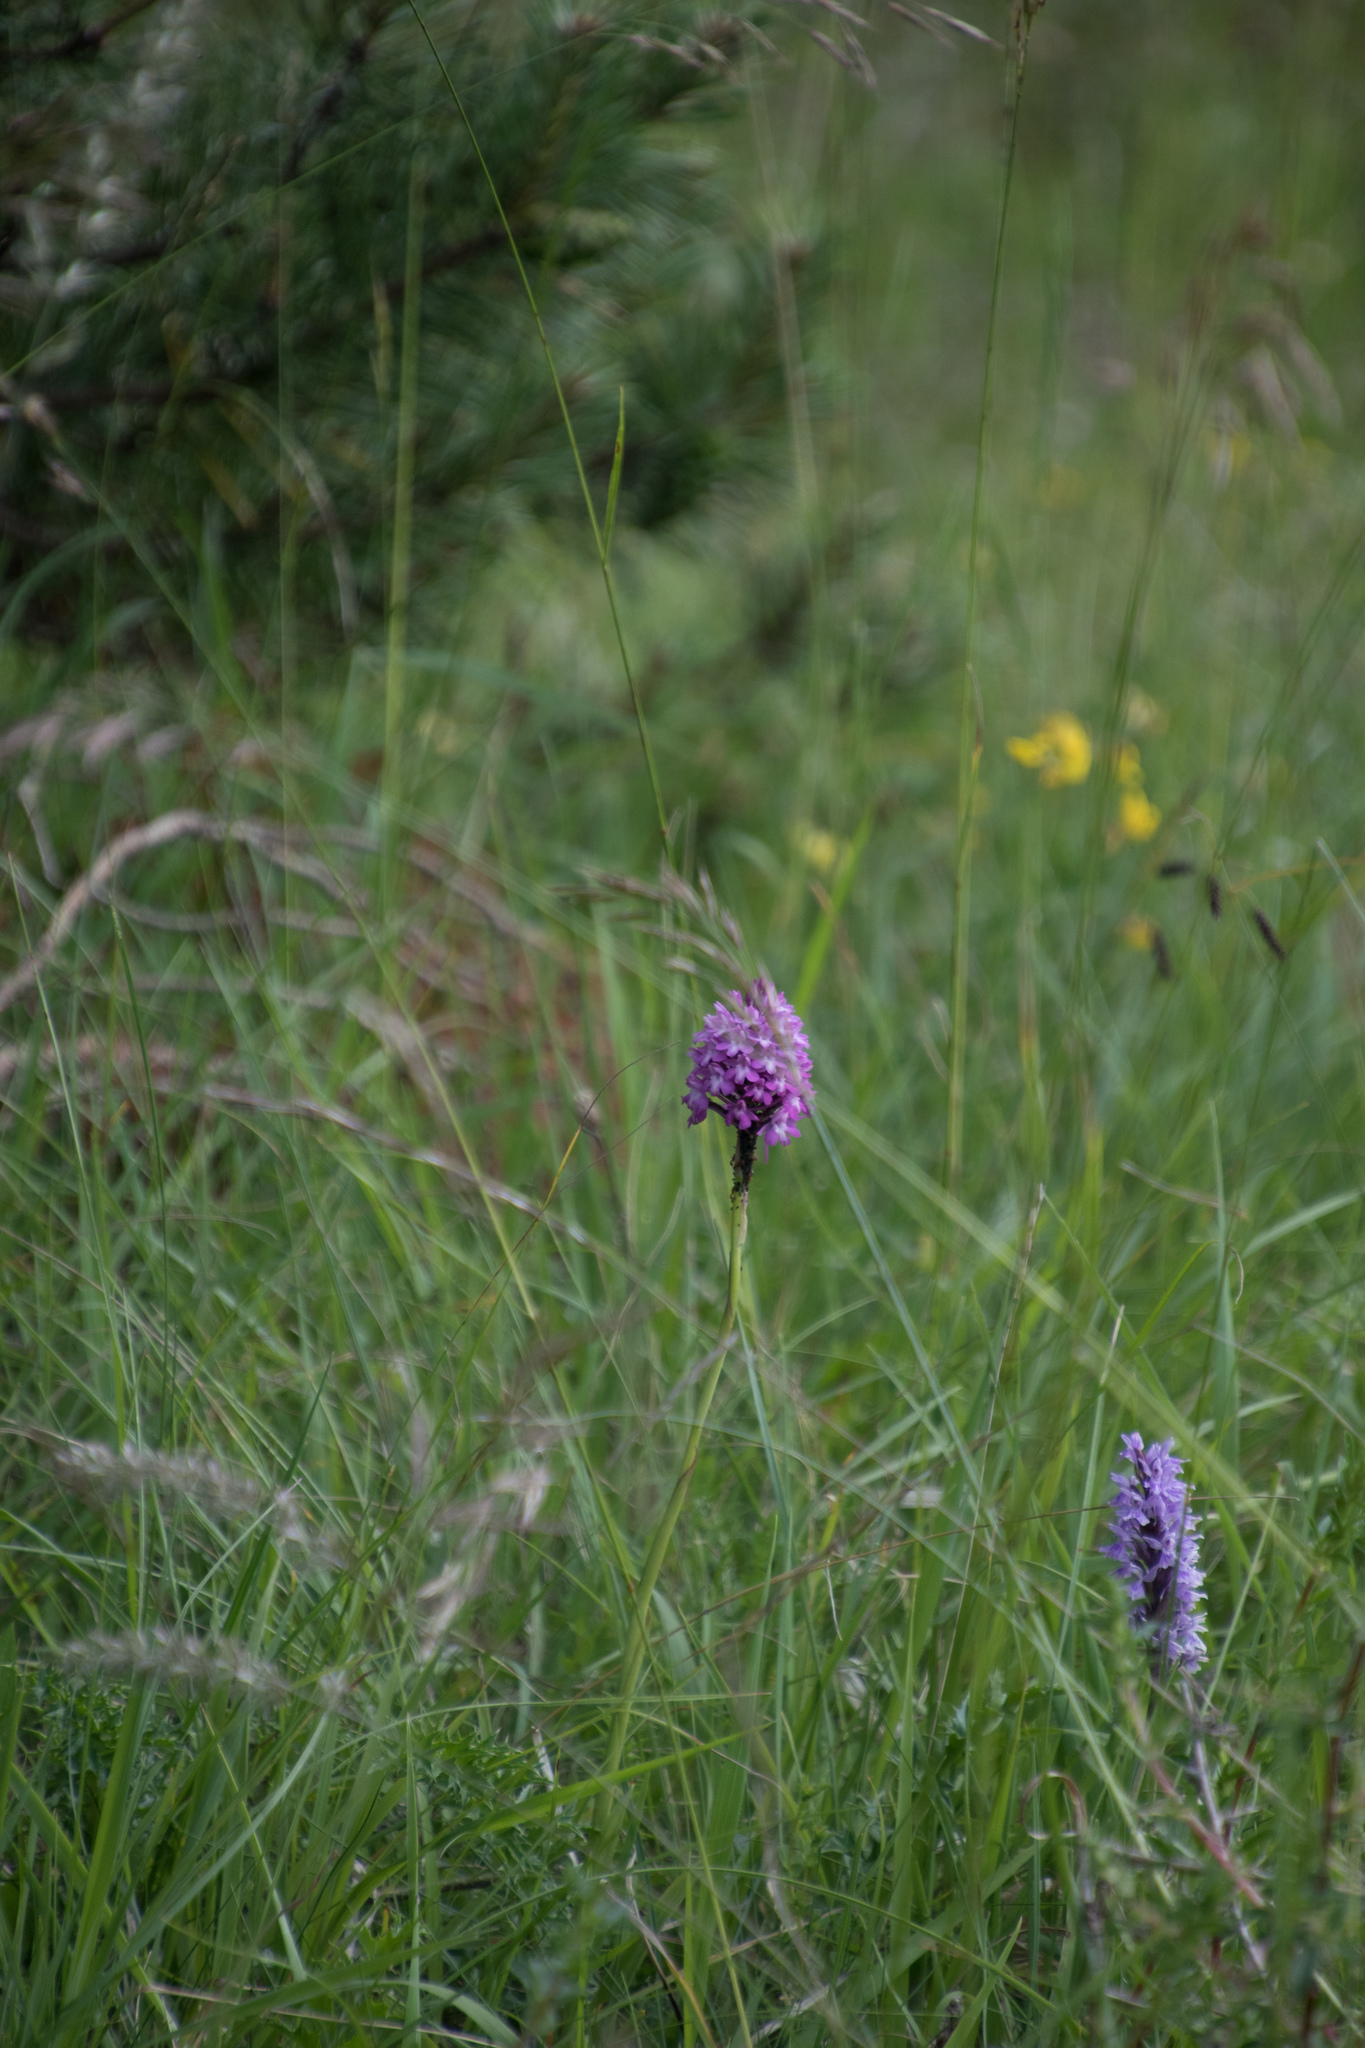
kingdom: Plantae
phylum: Tracheophyta
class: Liliopsida
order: Asparagales
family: Orchidaceae
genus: Anacamptis
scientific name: Anacamptis pyramidalis
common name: Pyramidal orchid
